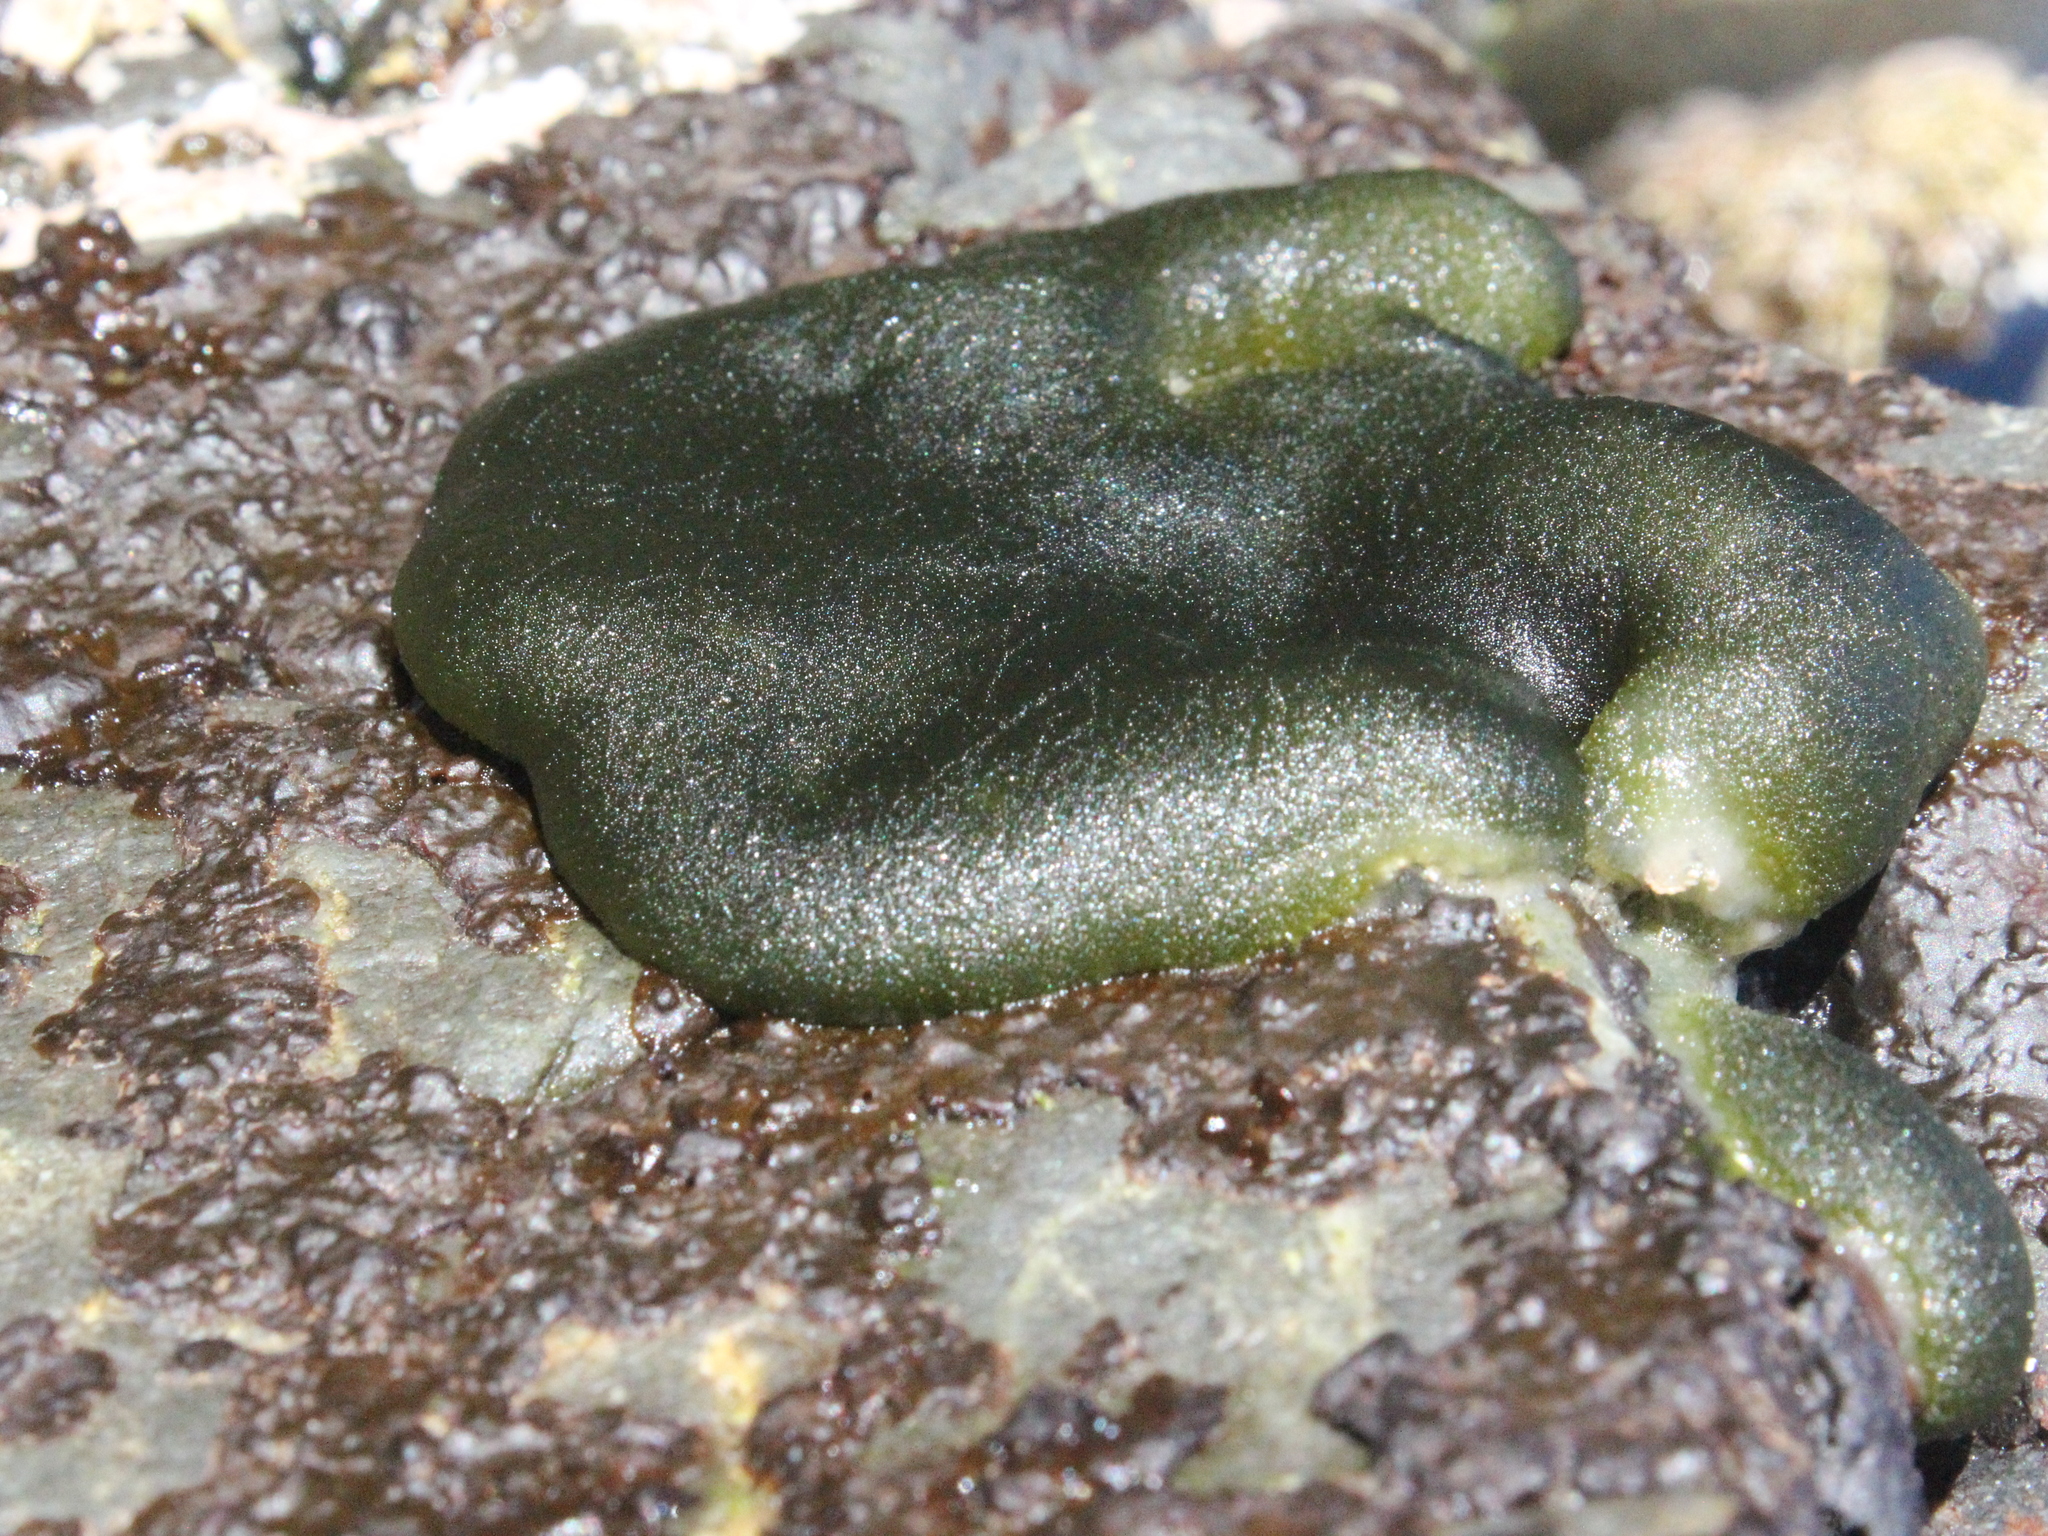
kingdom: Plantae
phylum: Chlorophyta
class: Ulvophyceae
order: Bryopsidales
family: Codiaceae
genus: Codium
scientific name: Codium convolutum
